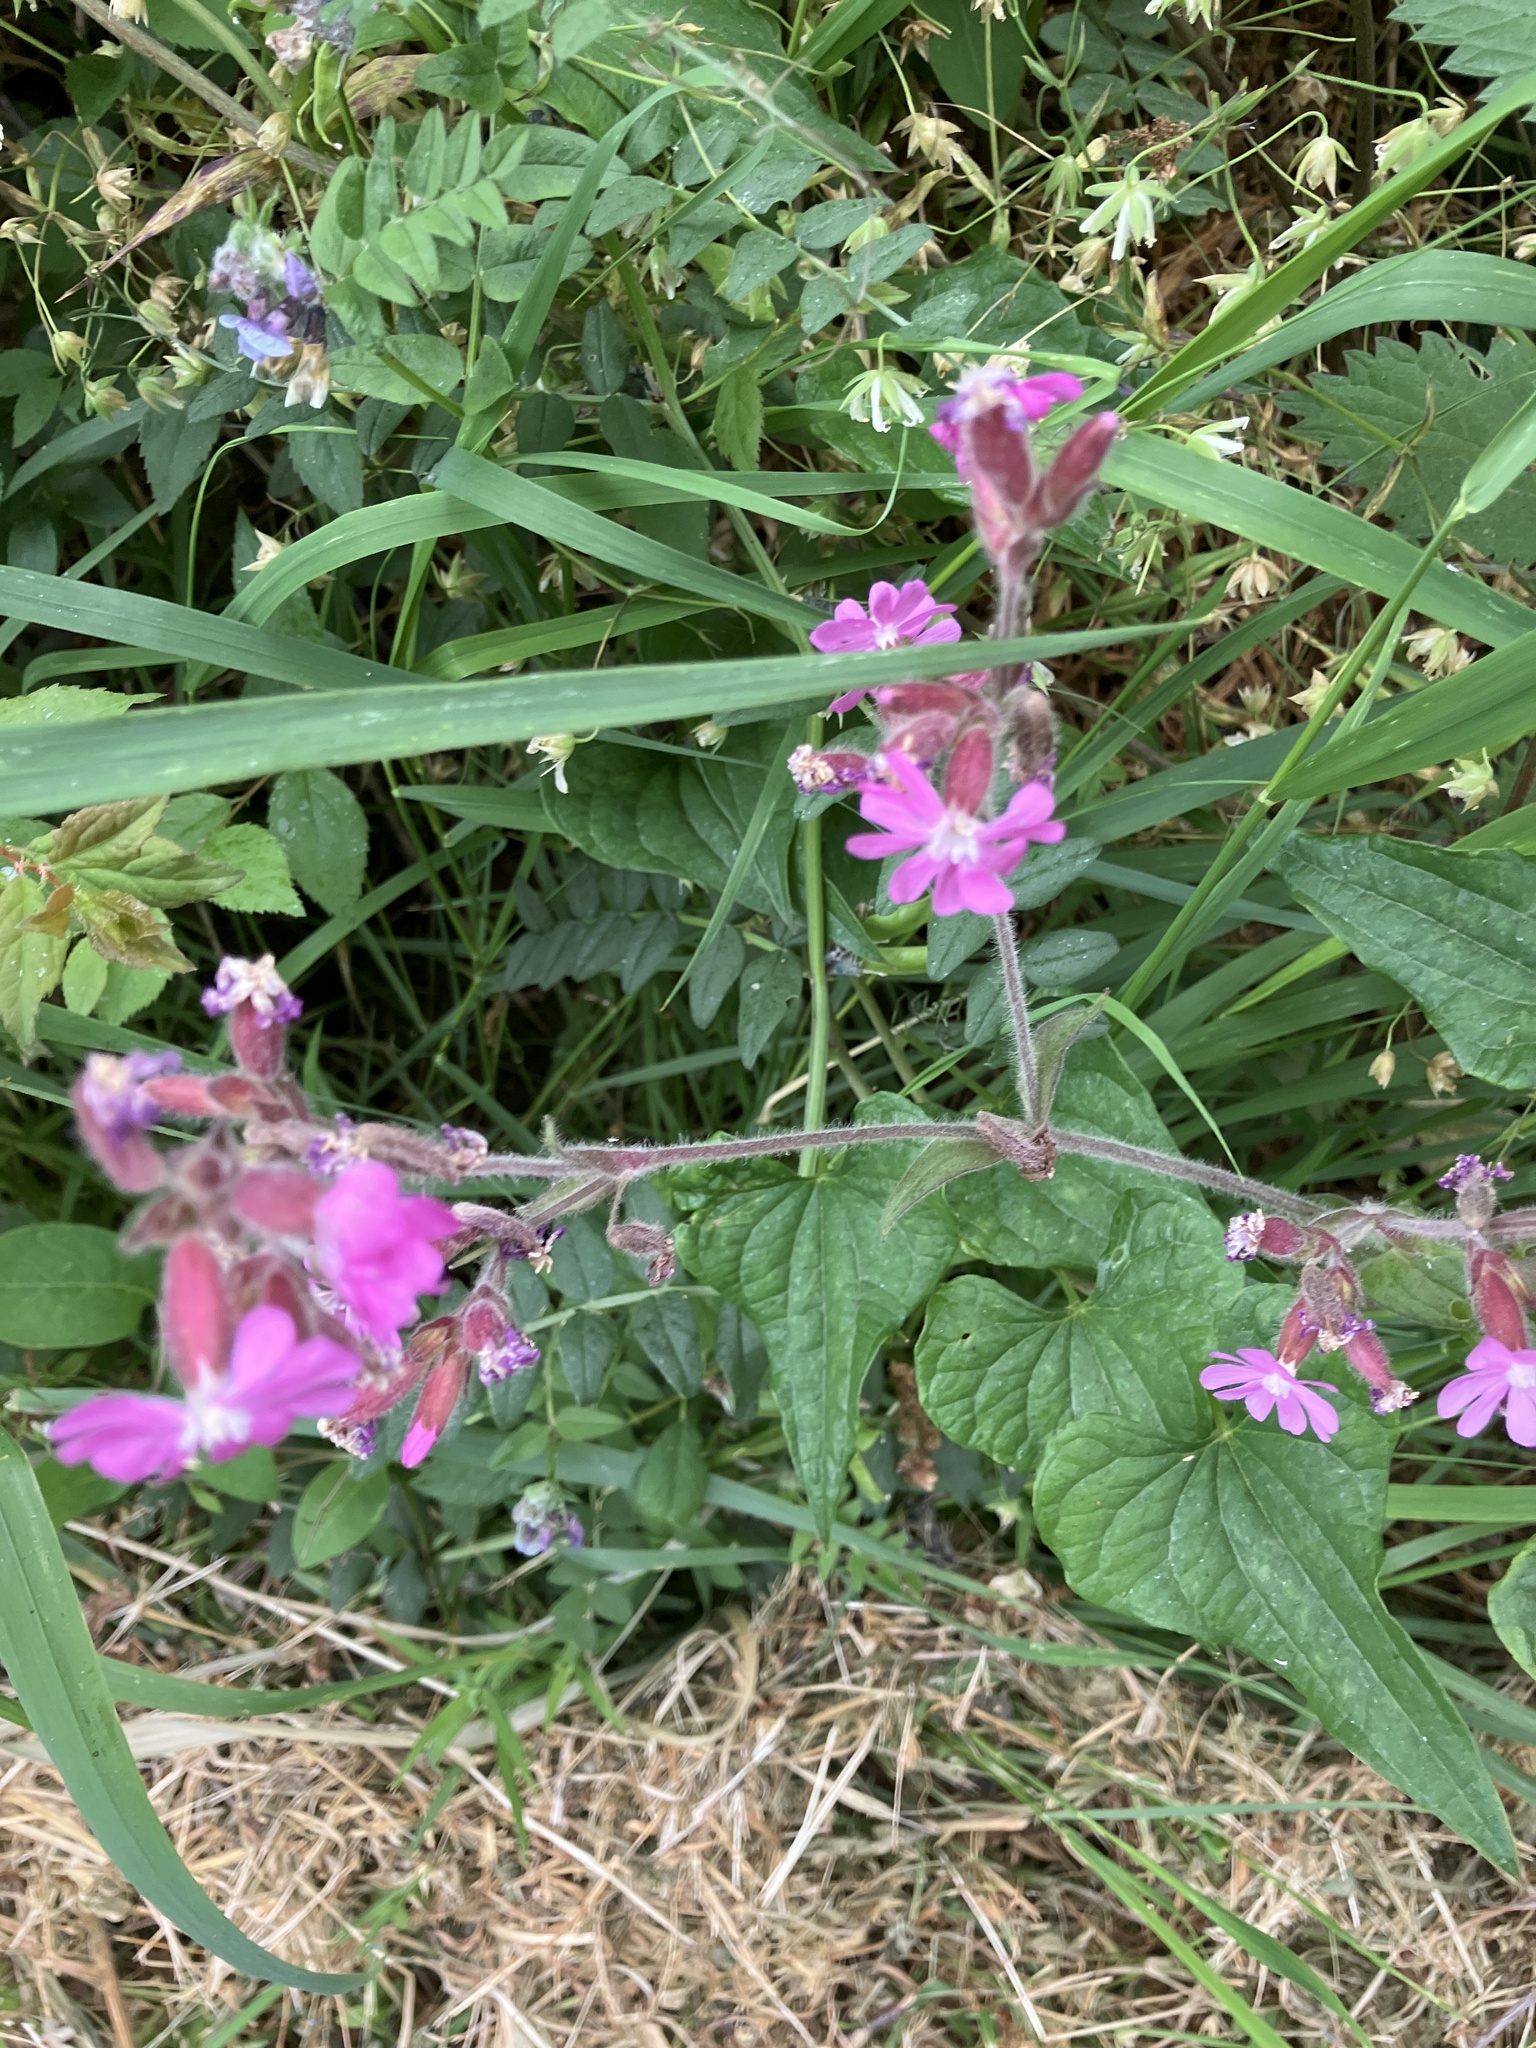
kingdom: Plantae
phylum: Tracheophyta
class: Magnoliopsida
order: Caryophyllales
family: Caryophyllaceae
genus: Silene
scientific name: Silene dioica
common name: Red campion
